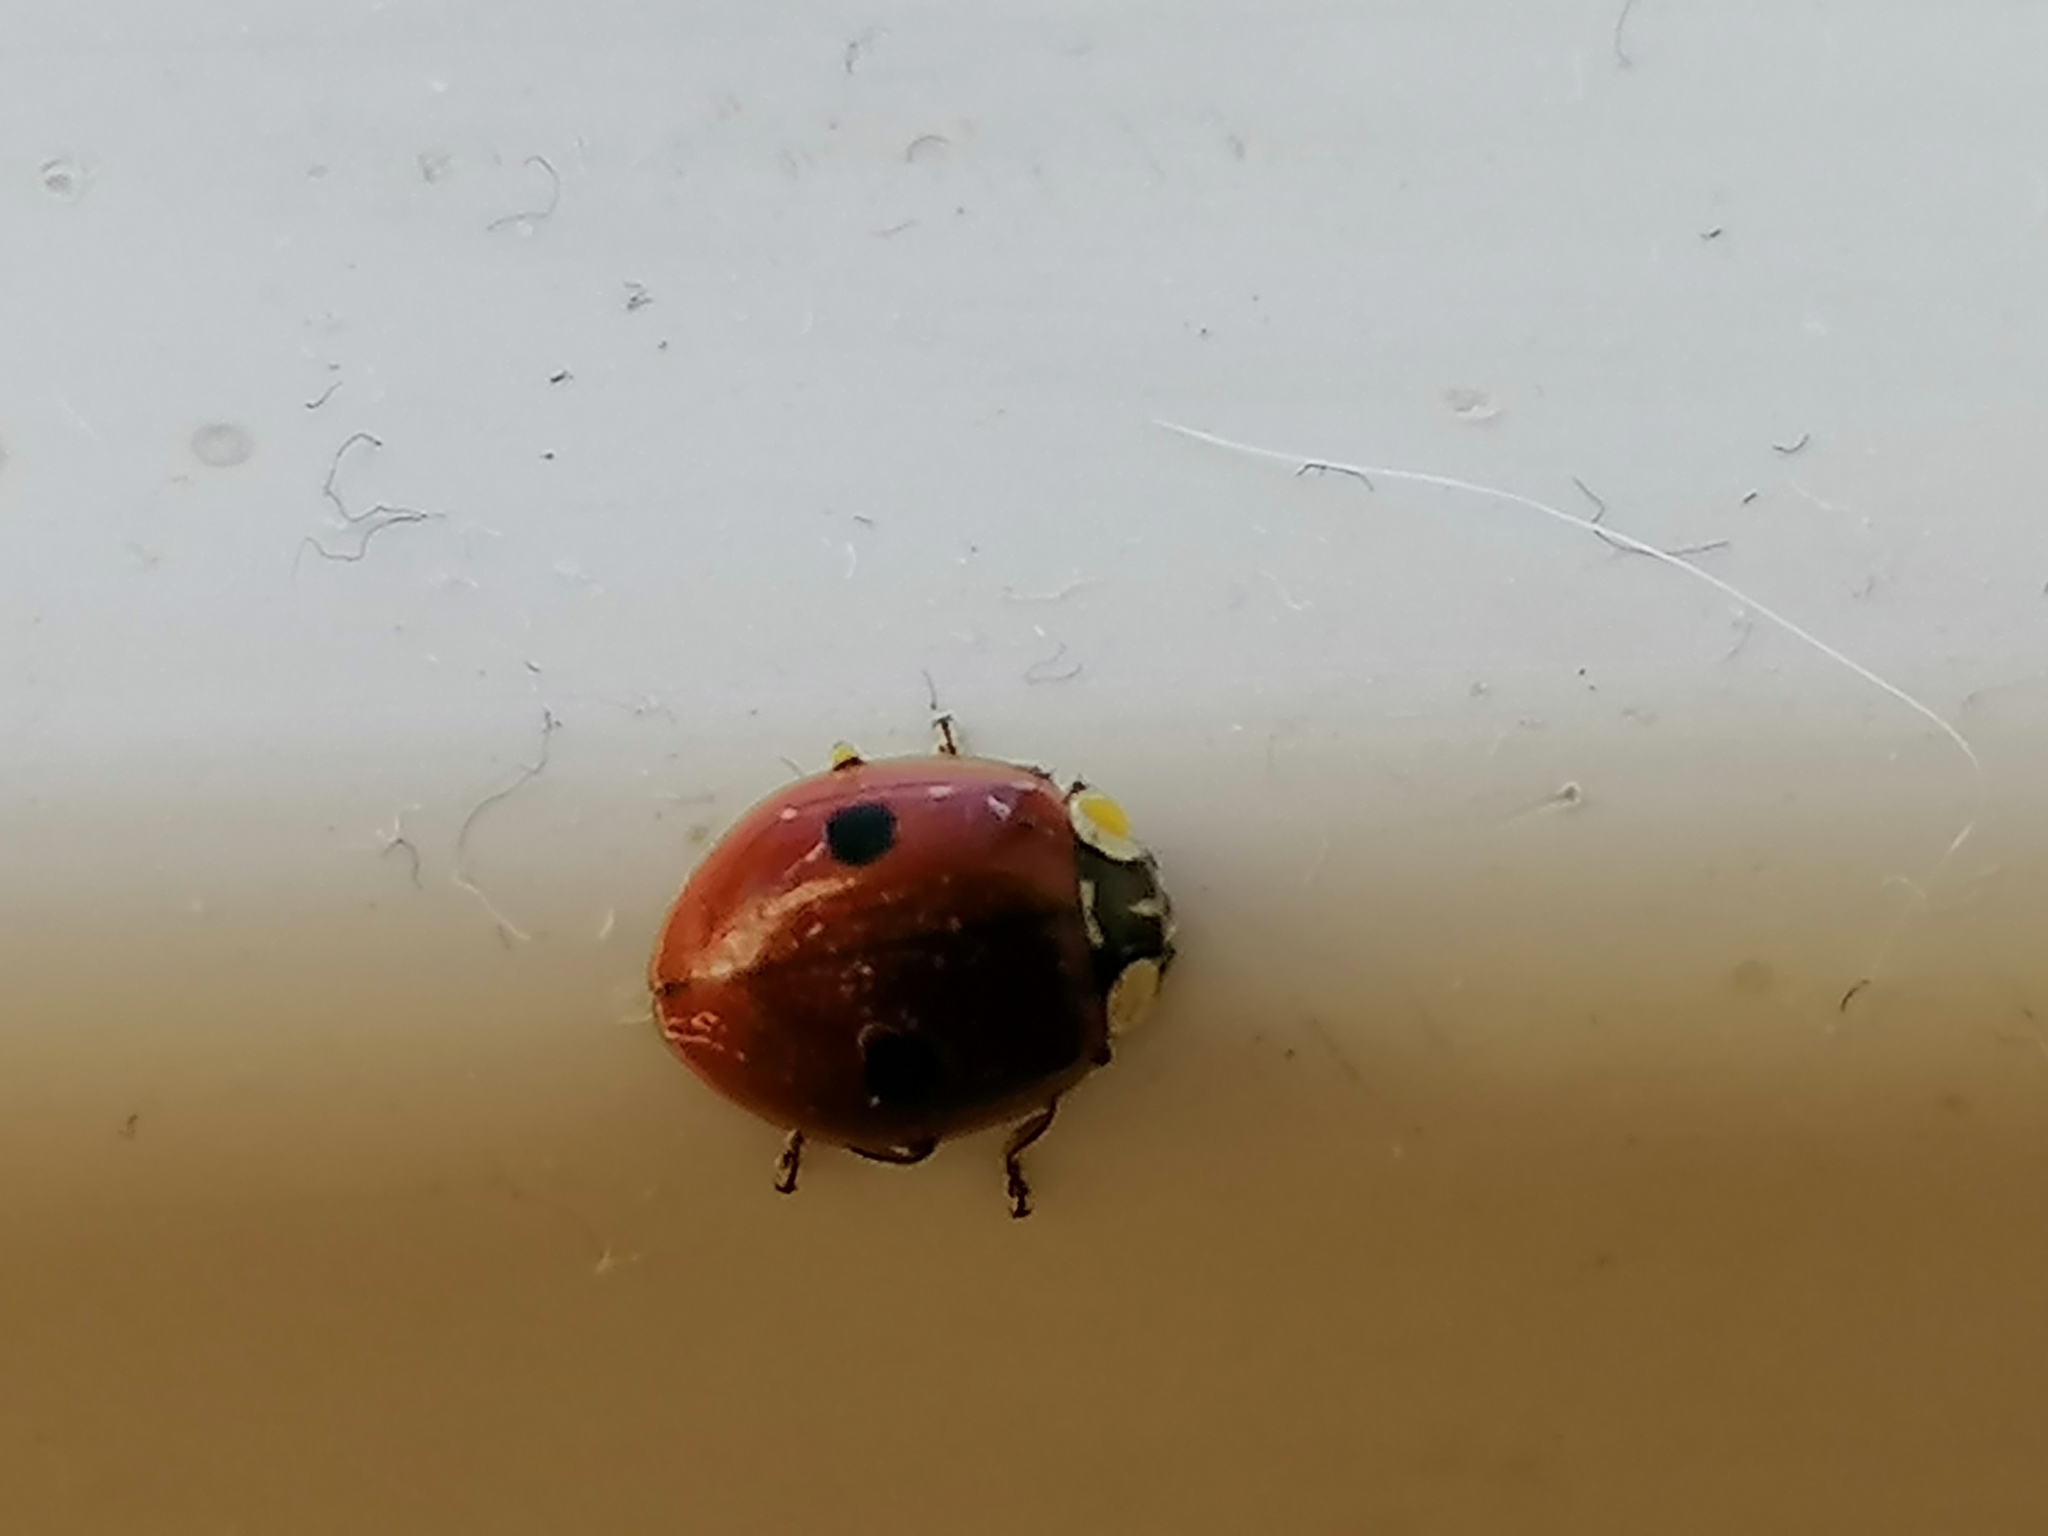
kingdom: Animalia
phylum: Arthropoda
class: Insecta
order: Coleoptera
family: Coccinellidae
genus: Adalia
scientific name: Adalia bipunctata
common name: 2-spot ladybird
